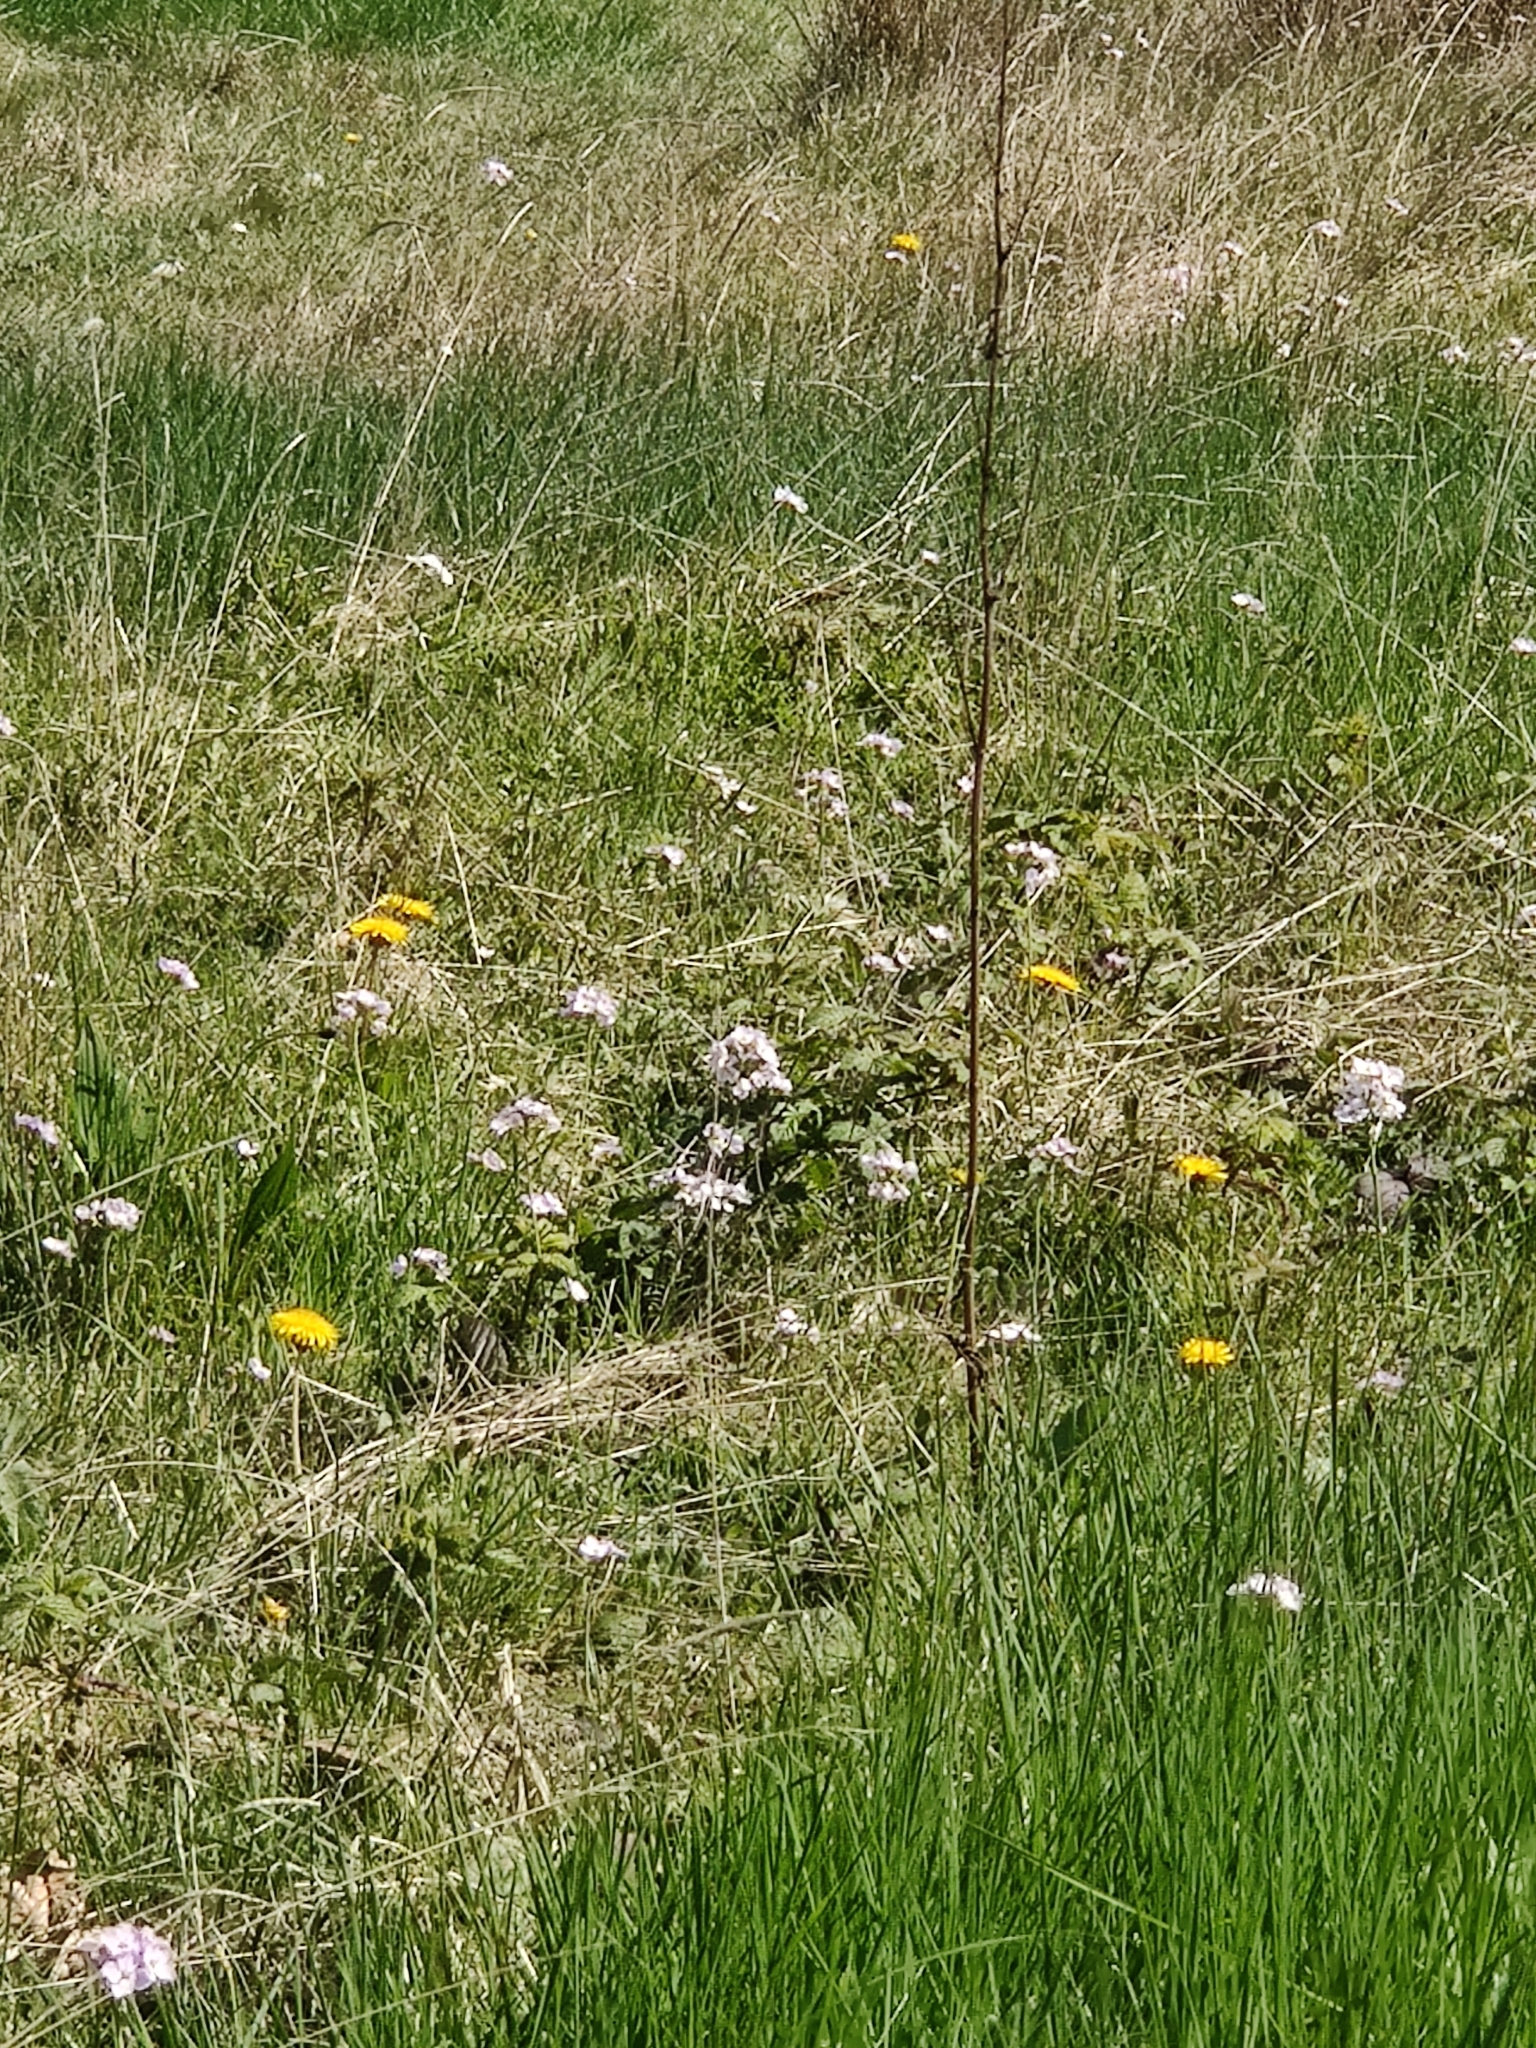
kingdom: Plantae
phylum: Tracheophyta
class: Magnoliopsida
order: Brassicales
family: Brassicaceae
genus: Cardamine
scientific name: Cardamine pratensis
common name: Cuckoo flower
